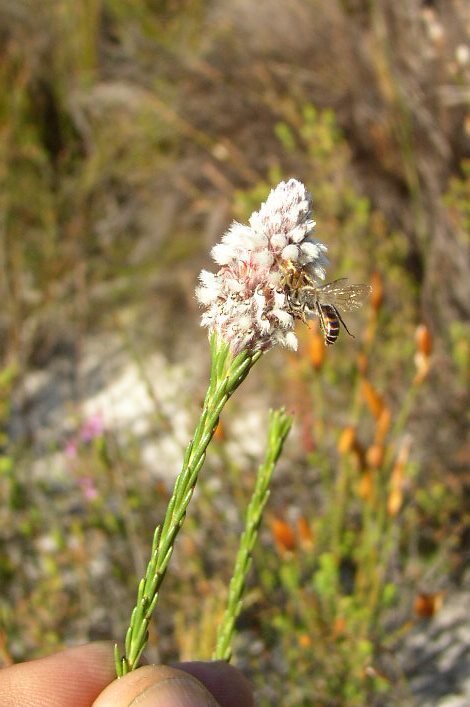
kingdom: Plantae
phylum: Tracheophyta
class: Magnoliopsida
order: Proteales
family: Proteaceae
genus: Spatalla
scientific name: Spatalla ericoides
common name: Erica-leaf spoon
